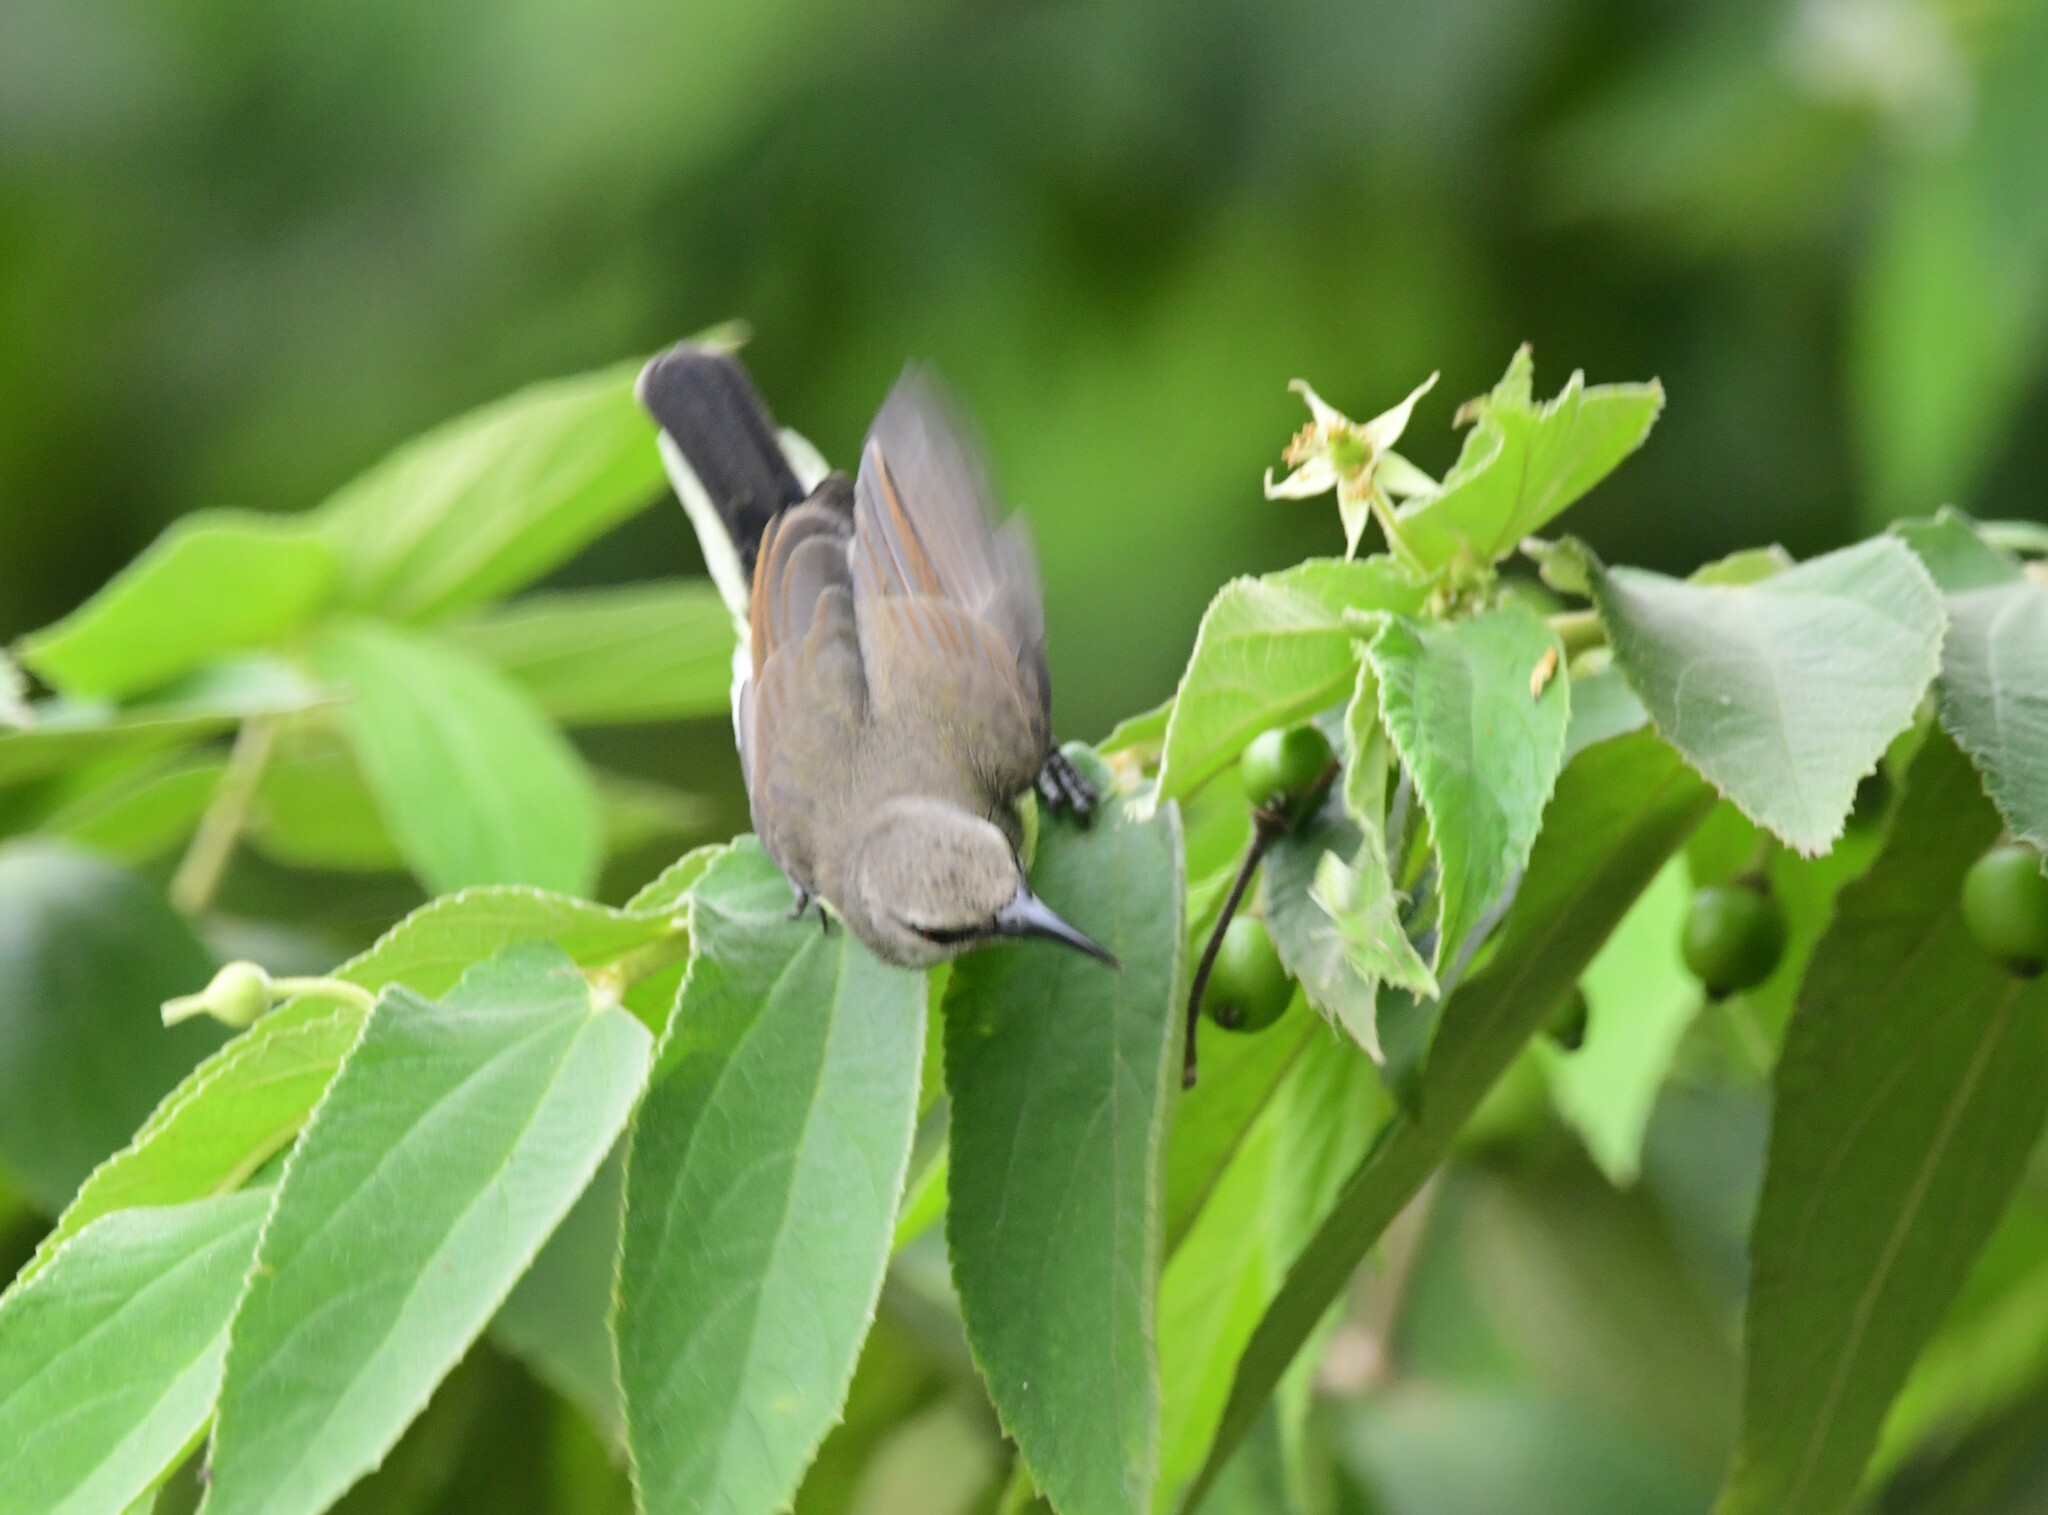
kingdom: Animalia
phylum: Chordata
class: Aves
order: Passeriformes
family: Nectariniidae
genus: Leptocoma
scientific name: Leptocoma zeylonica
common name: Purple-rumped sunbird
